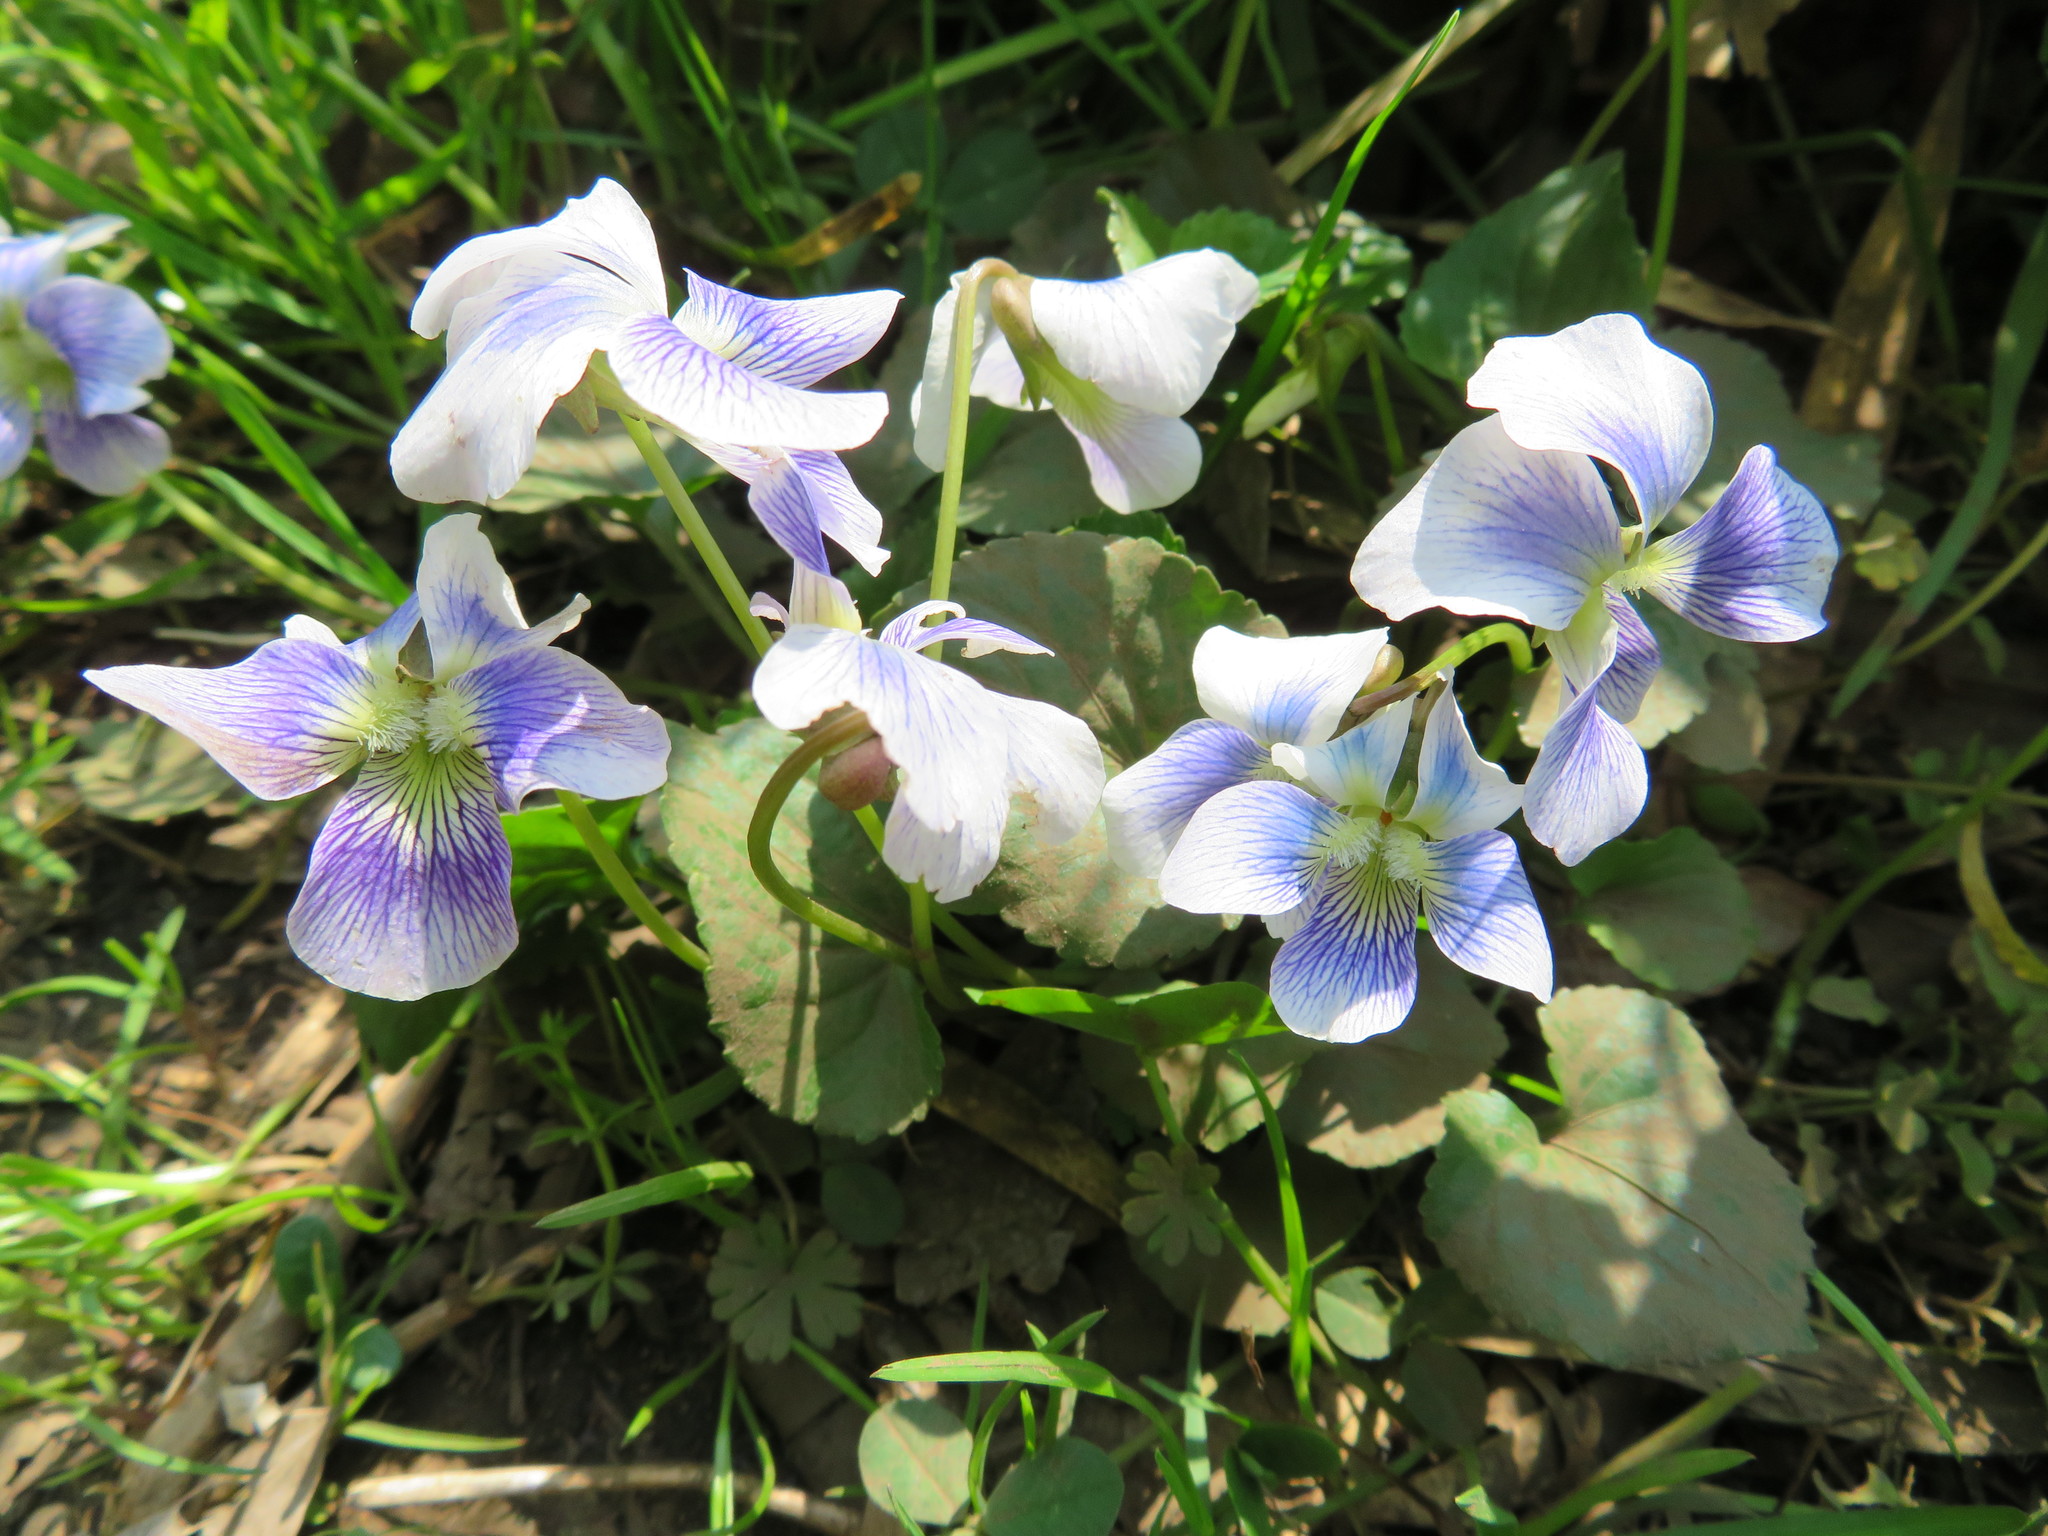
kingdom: Plantae
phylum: Tracheophyta
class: Magnoliopsida
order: Malpighiales
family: Violaceae
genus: Viola
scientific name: Viola sororia
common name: Dooryard violet
